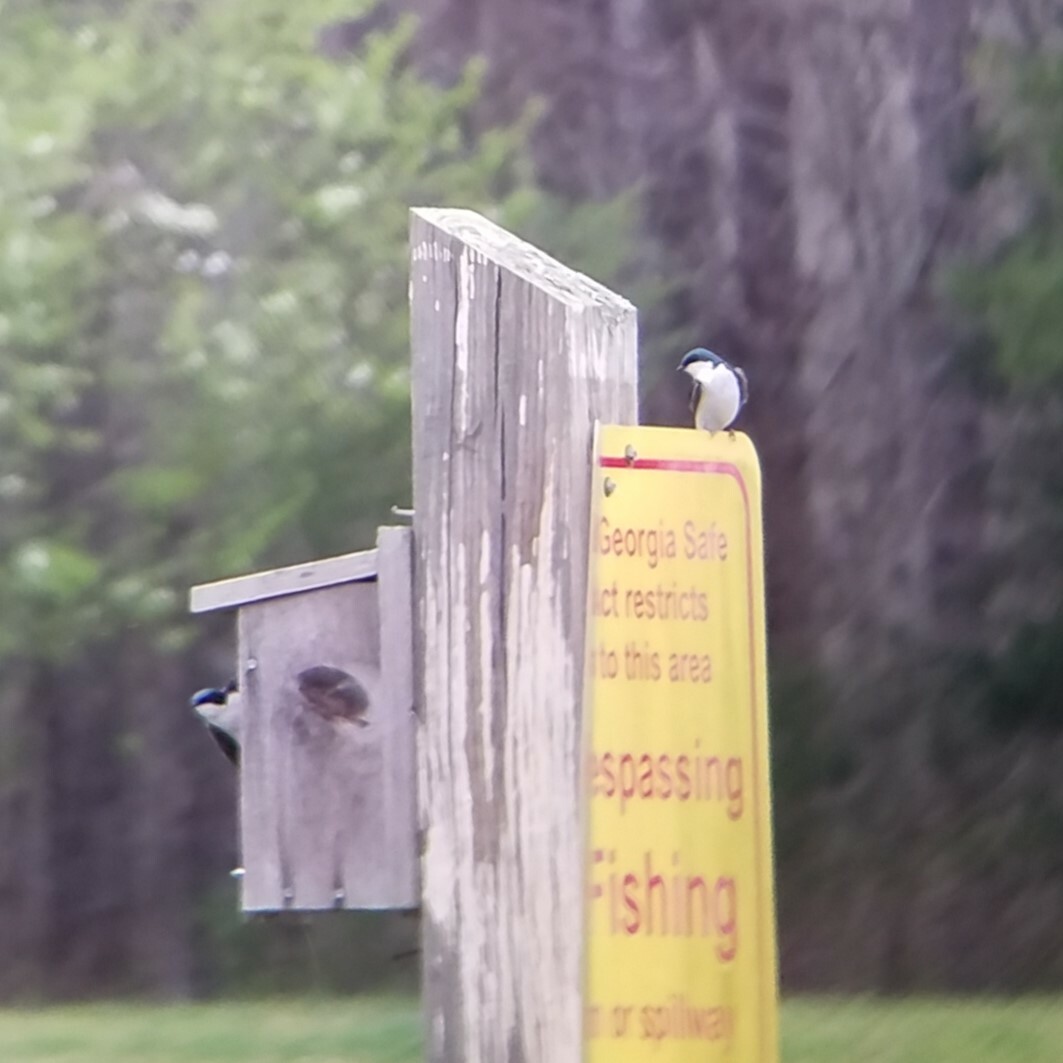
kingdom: Animalia
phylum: Chordata
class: Aves
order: Passeriformes
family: Hirundinidae
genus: Tachycineta
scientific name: Tachycineta bicolor
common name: Tree swallow
